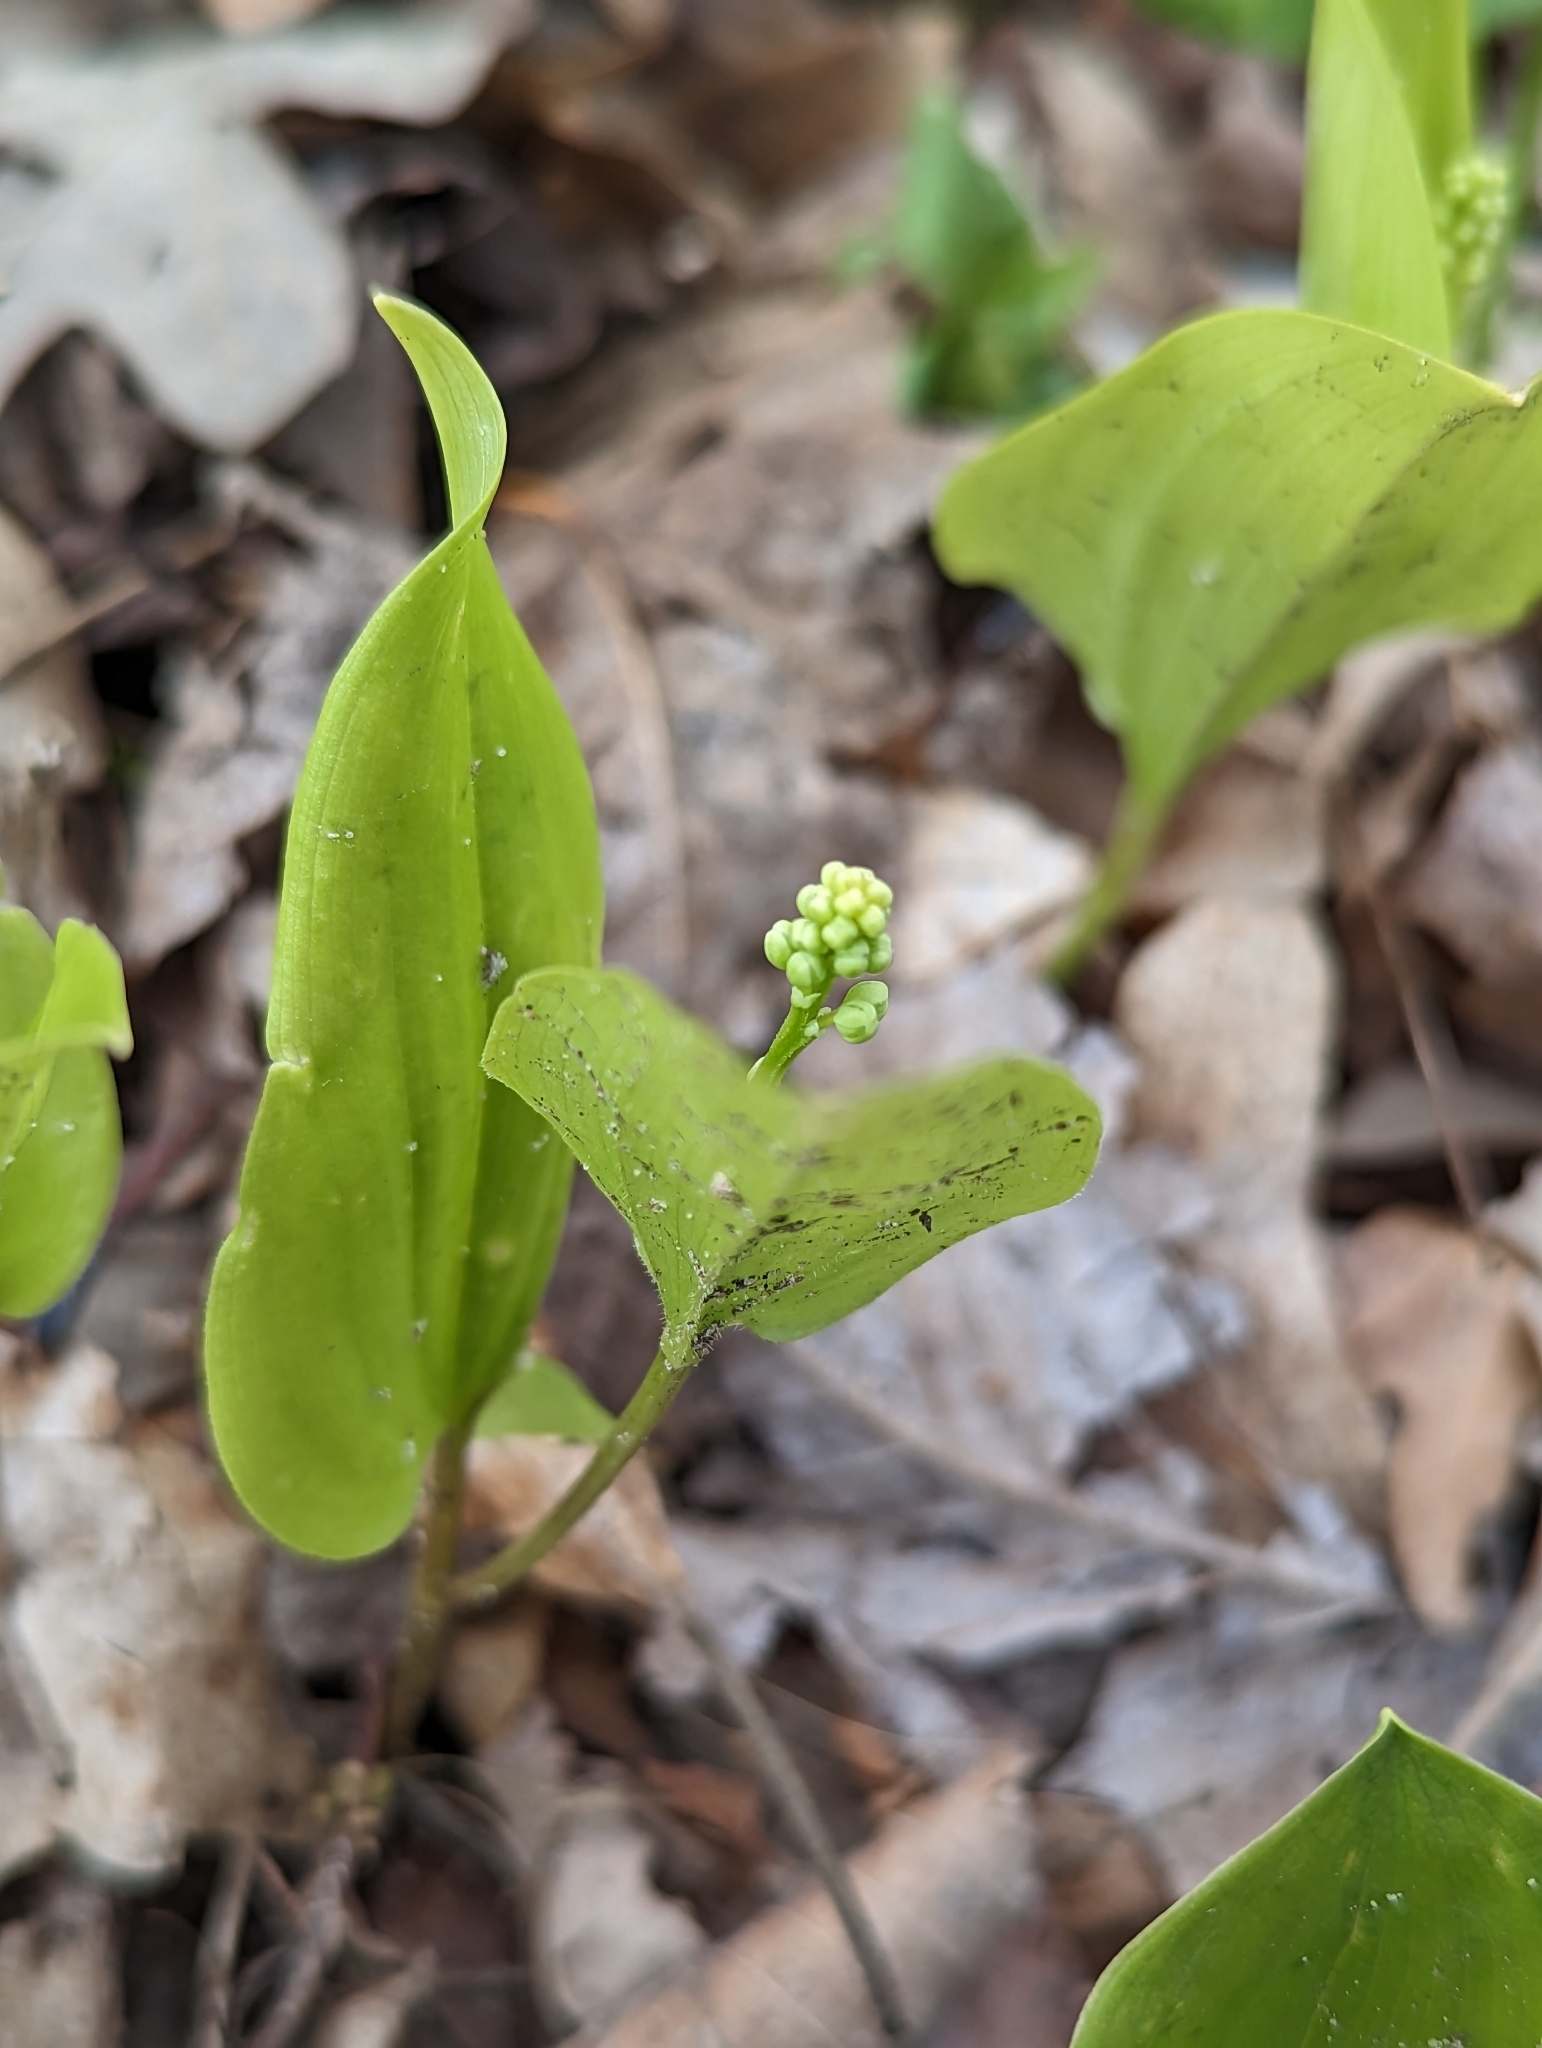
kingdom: Plantae
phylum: Tracheophyta
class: Liliopsida
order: Asparagales
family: Asparagaceae
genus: Maianthemum
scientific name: Maianthemum canadense
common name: False lily-of-the-valley
